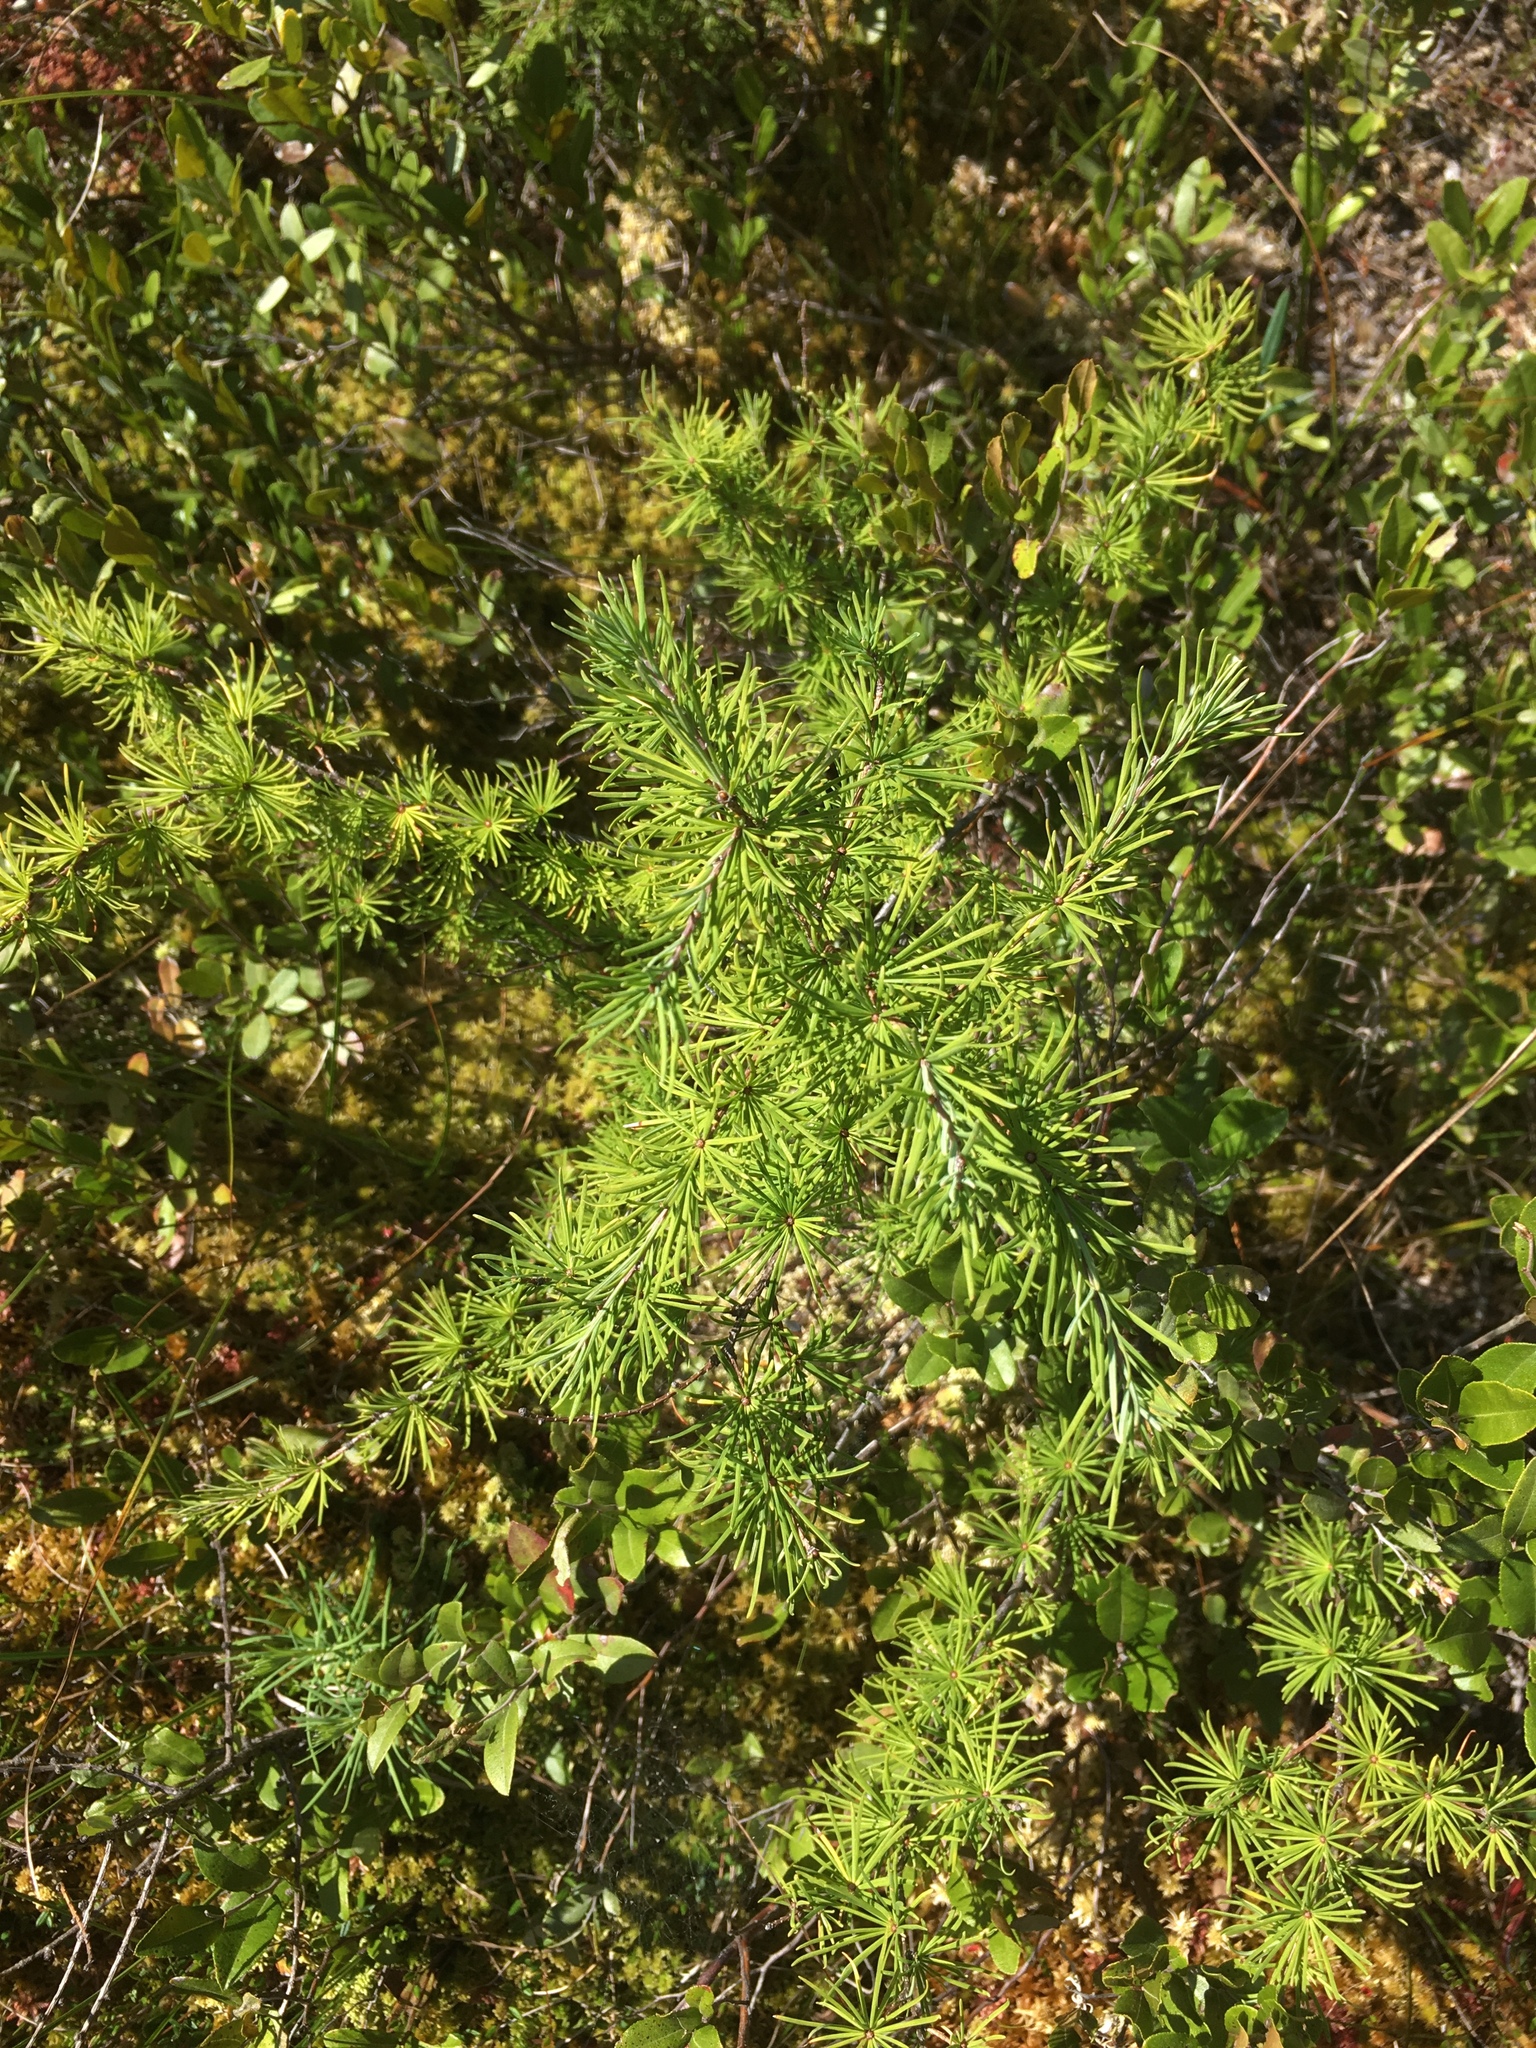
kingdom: Plantae
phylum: Tracheophyta
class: Pinopsida
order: Pinales
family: Pinaceae
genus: Larix
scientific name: Larix laricina
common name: American larch
